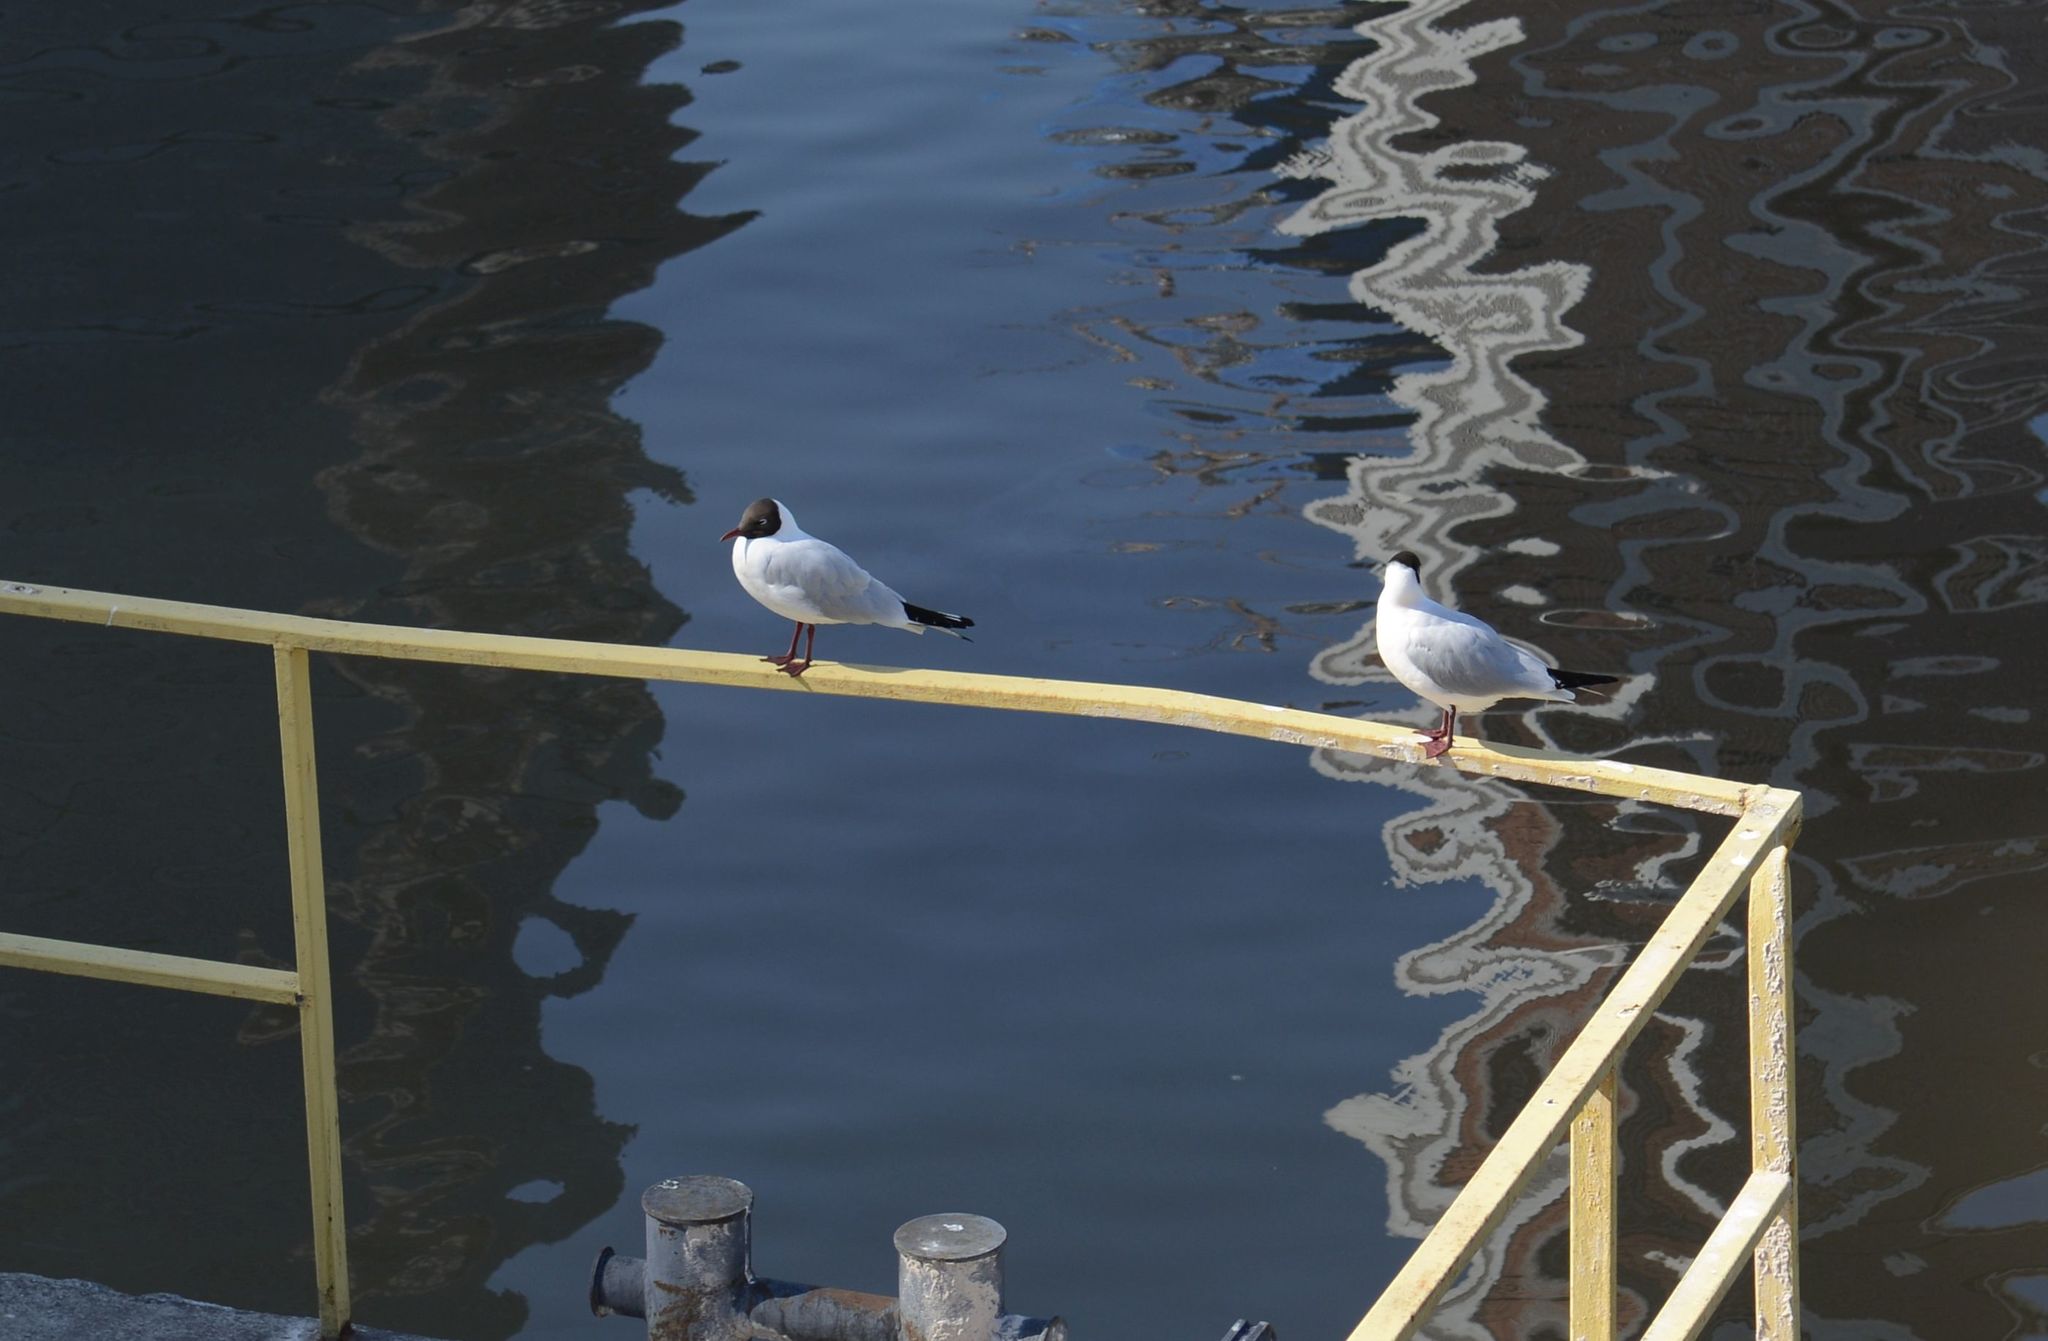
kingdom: Animalia
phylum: Chordata
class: Aves
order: Charadriiformes
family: Laridae
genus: Chroicocephalus
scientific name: Chroicocephalus ridibundus
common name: Black-headed gull
